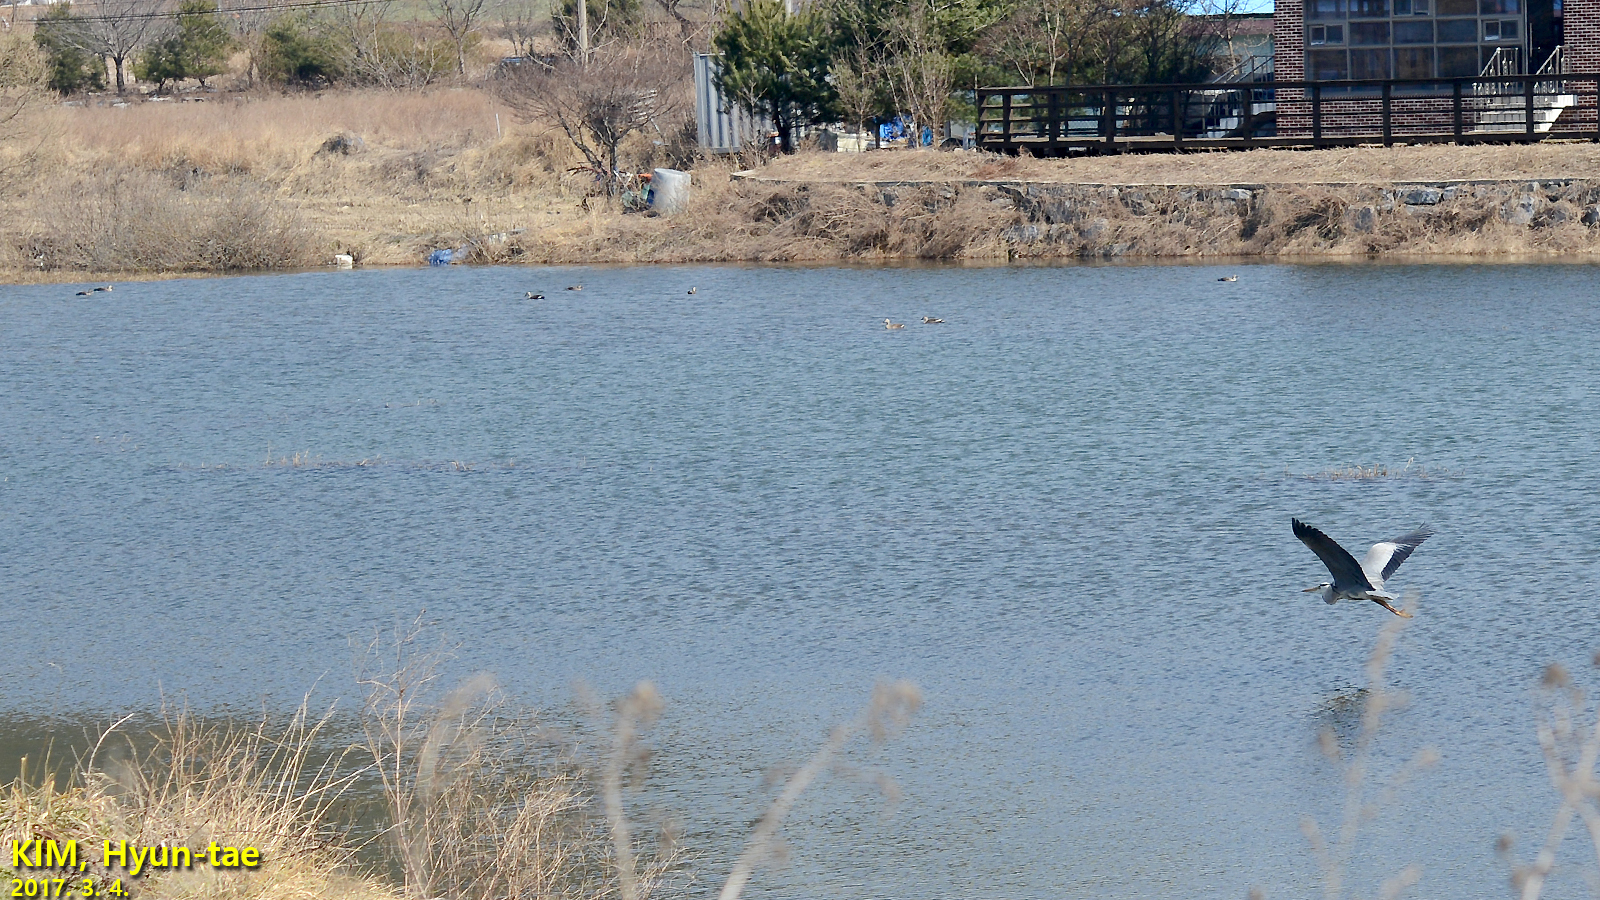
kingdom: Animalia
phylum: Chordata
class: Aves
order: Pelecaniformes
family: Ardeidae
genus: Ardea
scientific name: Ardea cinerea
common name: Grey heron
